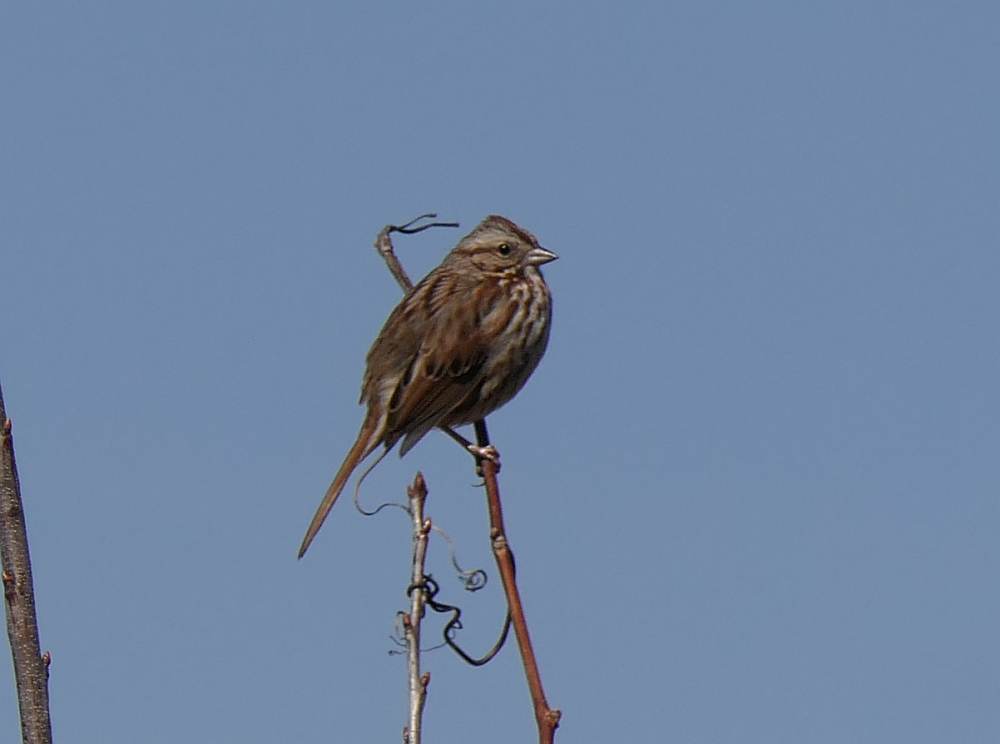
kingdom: Animalia
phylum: Chordata
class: Aves
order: Passeriformes
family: Passerellidae
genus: Melospiza
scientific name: Melospiza melodia
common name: Song sparrow
